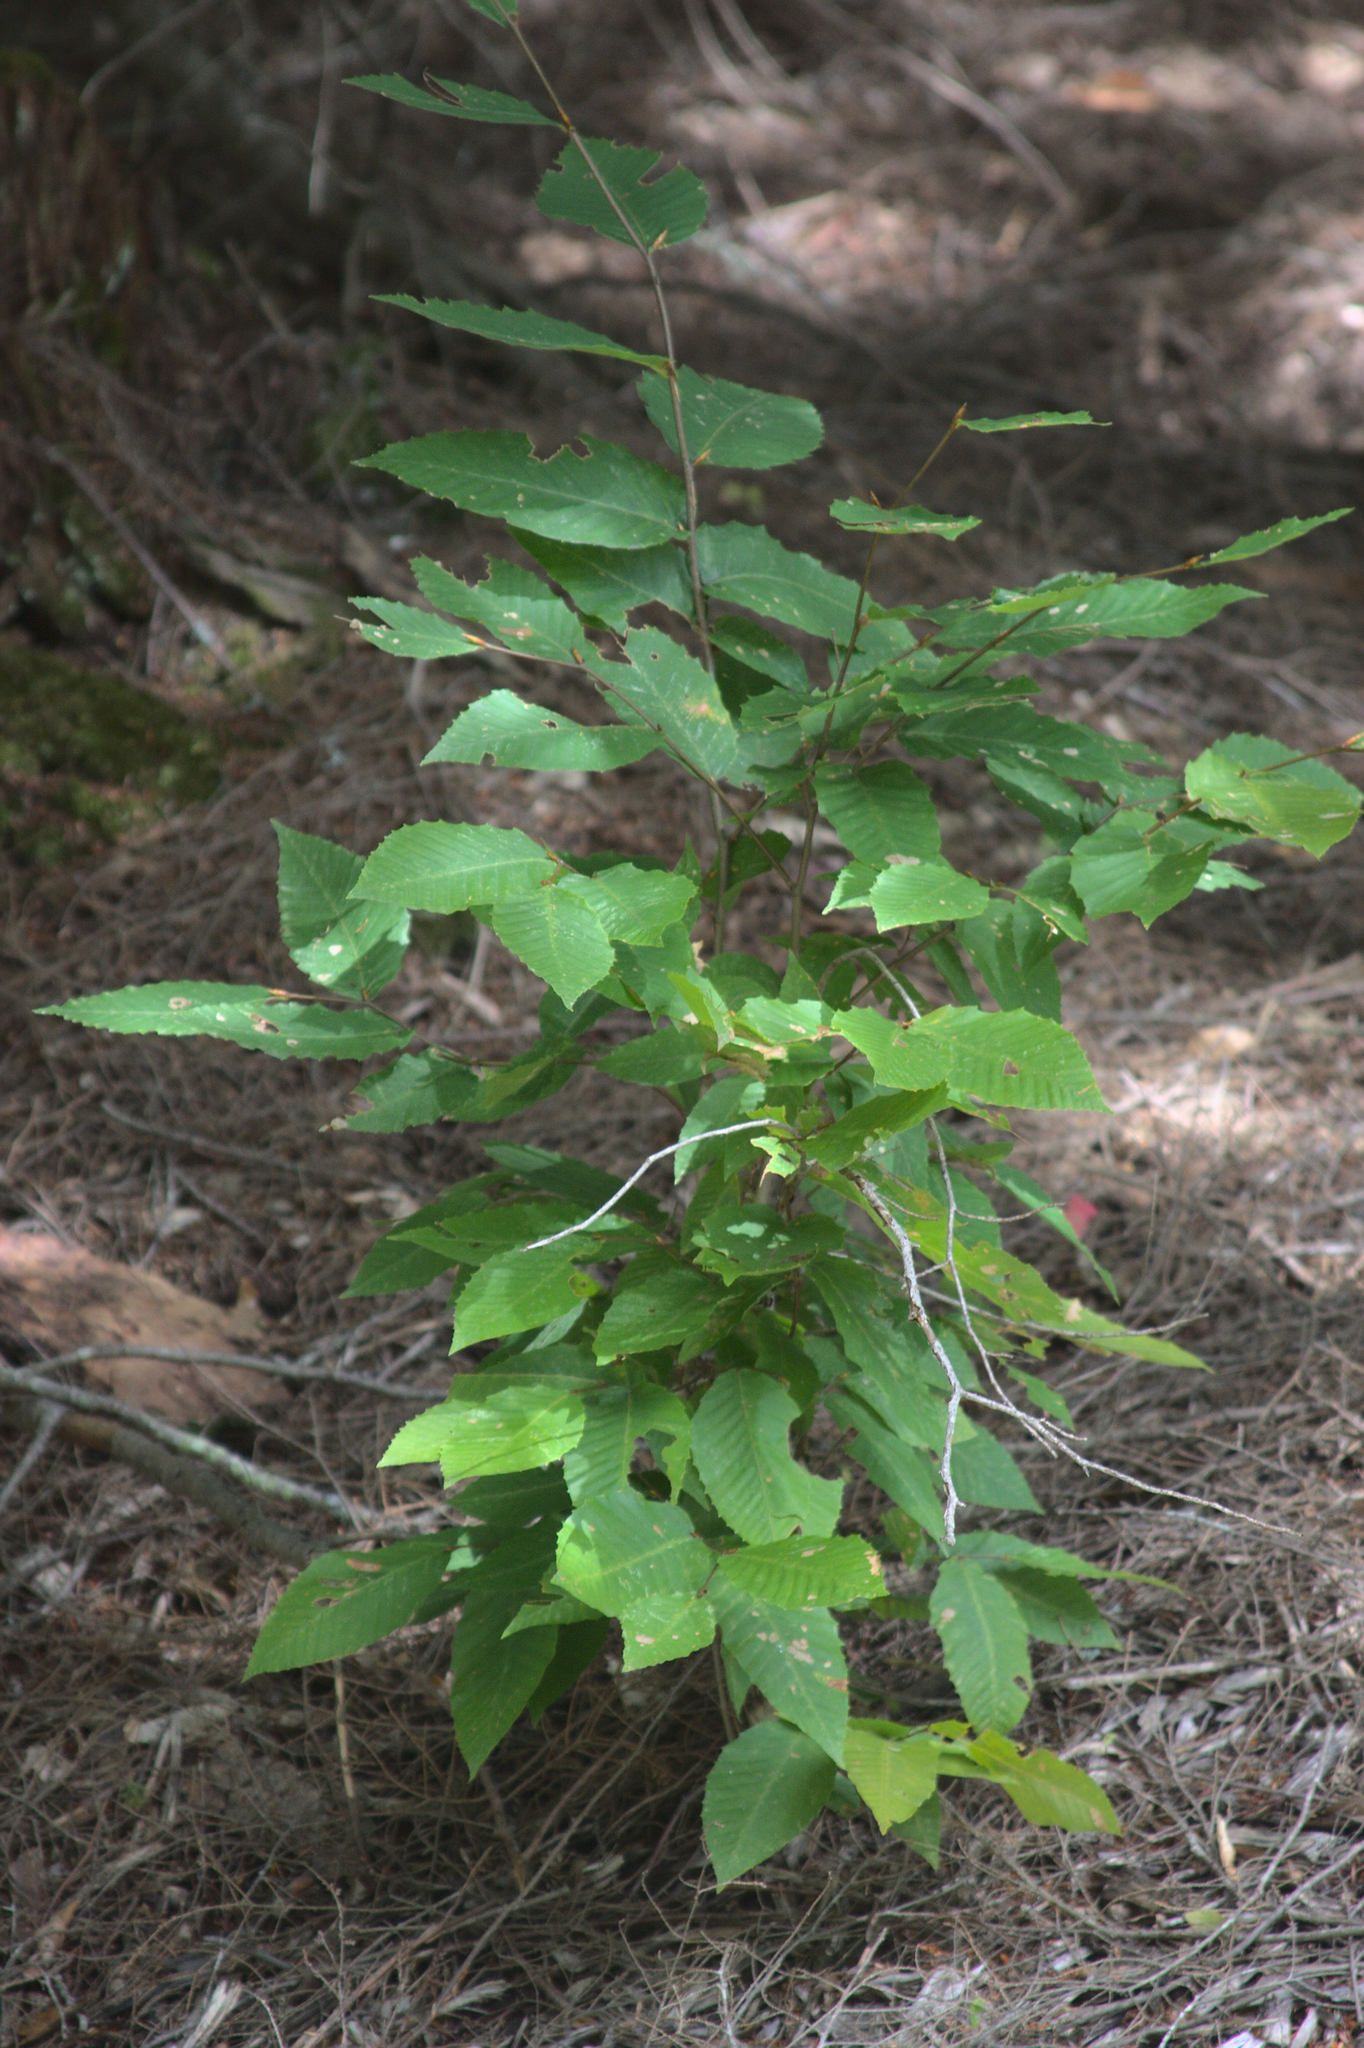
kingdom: Plantae
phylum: Tracheophyta
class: Magnoliopsida
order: Fagales
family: Fagaceae
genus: Fagus
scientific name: Fagus grandifolia
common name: American beech
